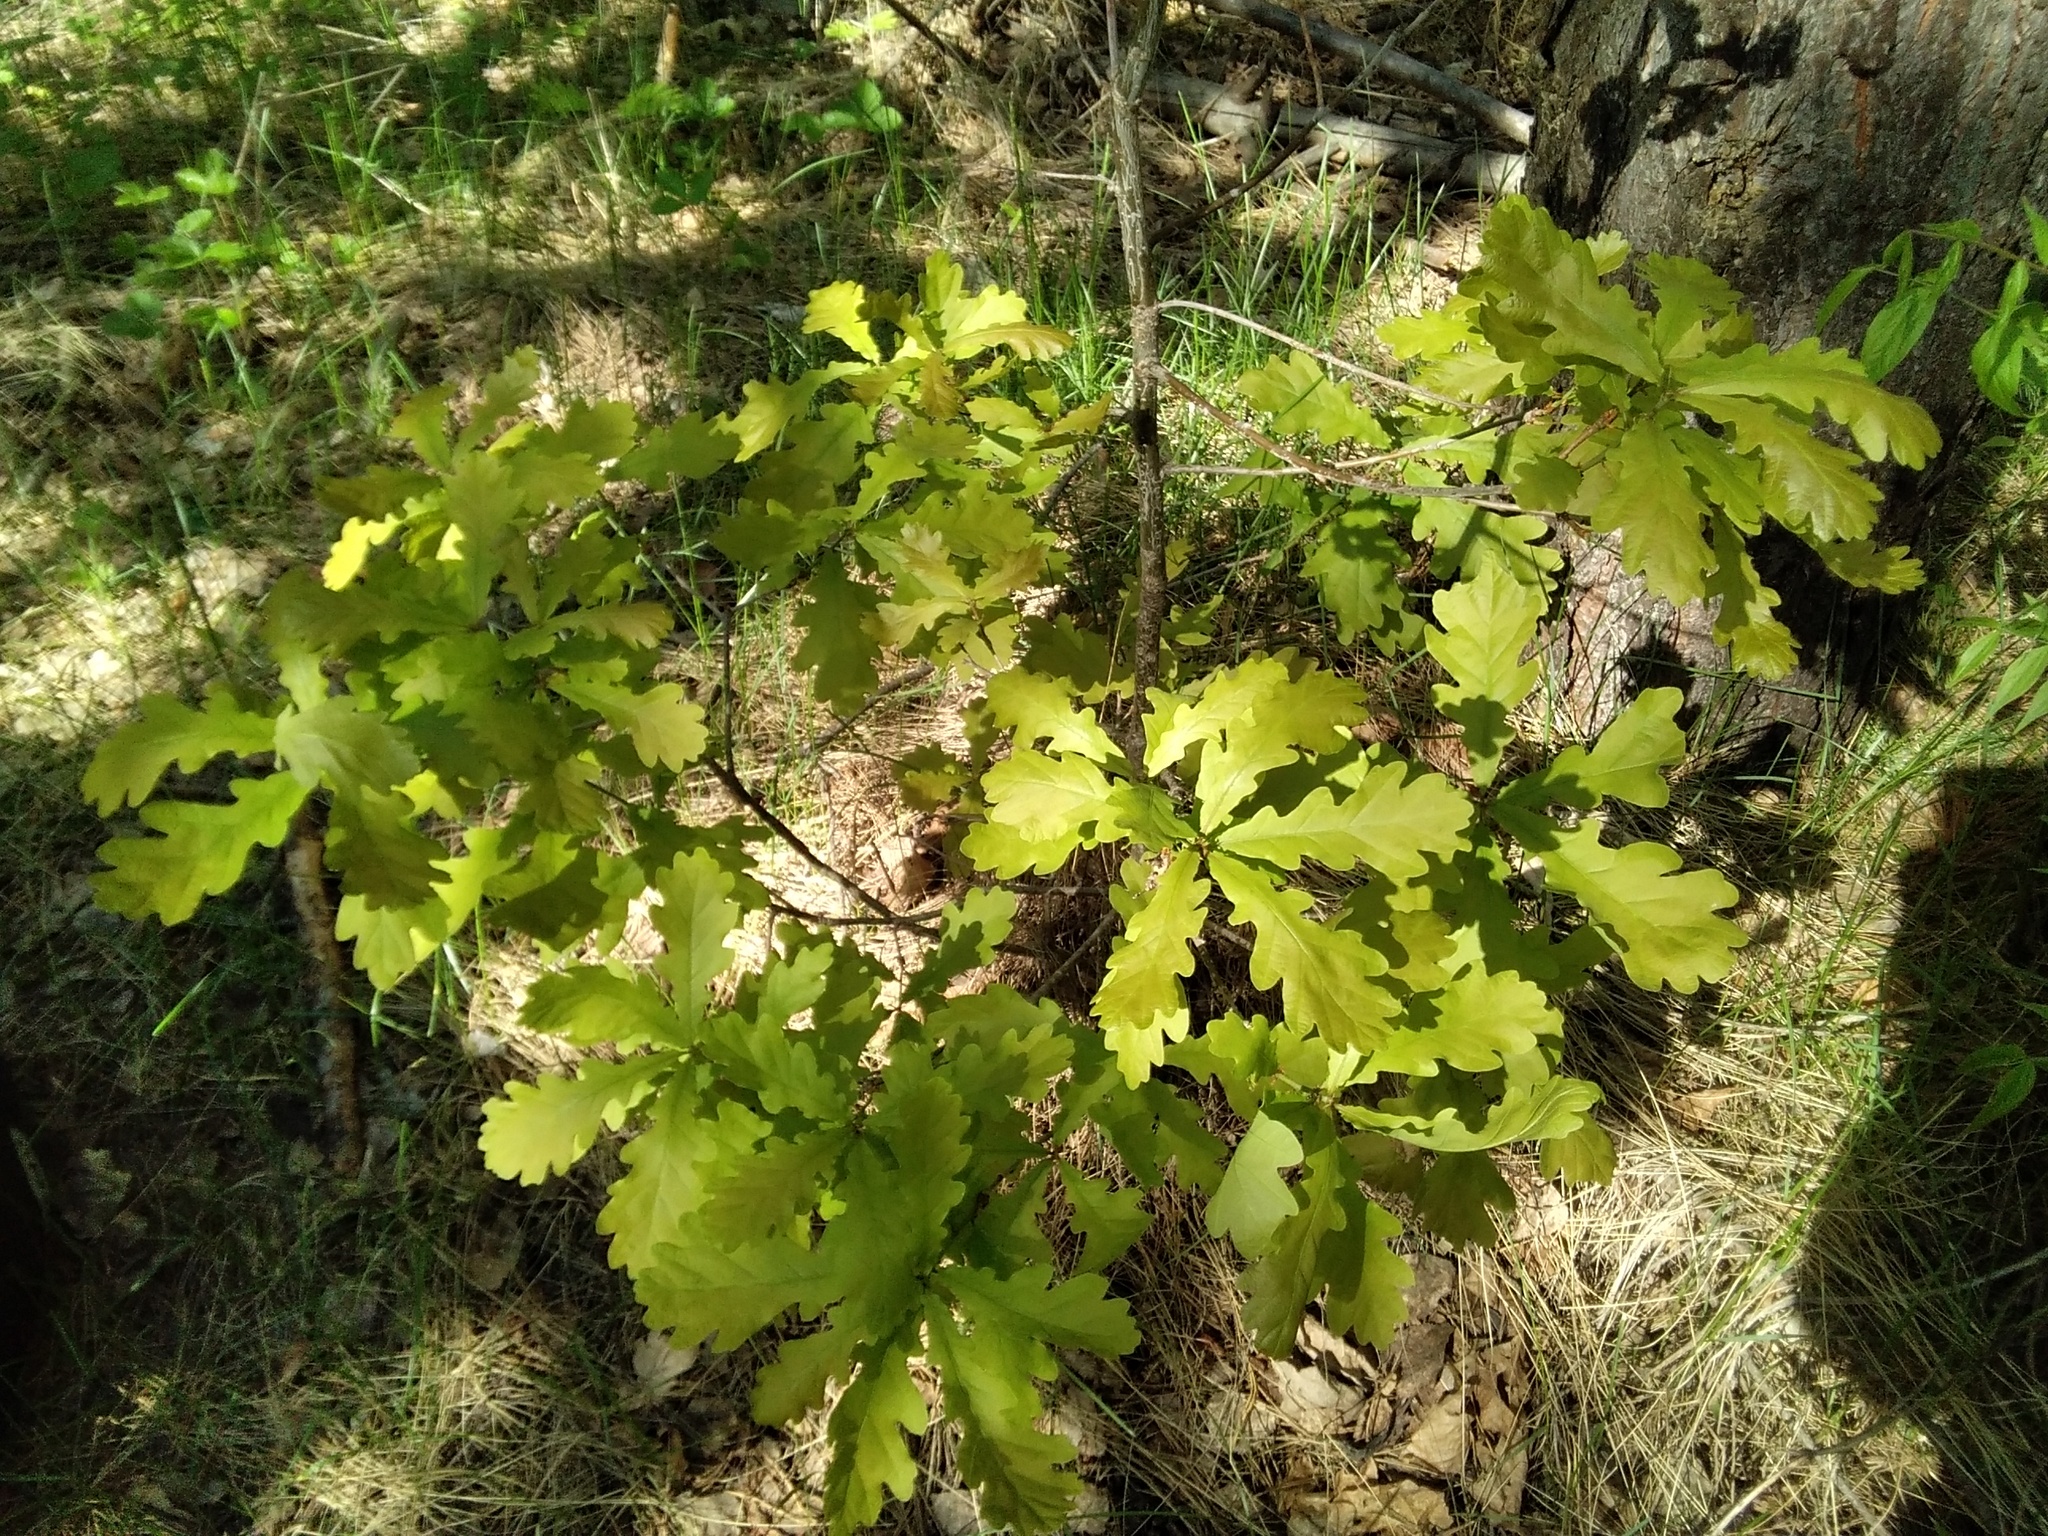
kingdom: Plantae
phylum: Tracheophyta
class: Magnoliopsida
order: Fagales
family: Fagaceae
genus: Quercus
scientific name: Quercus robur
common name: Pedunculate oak
